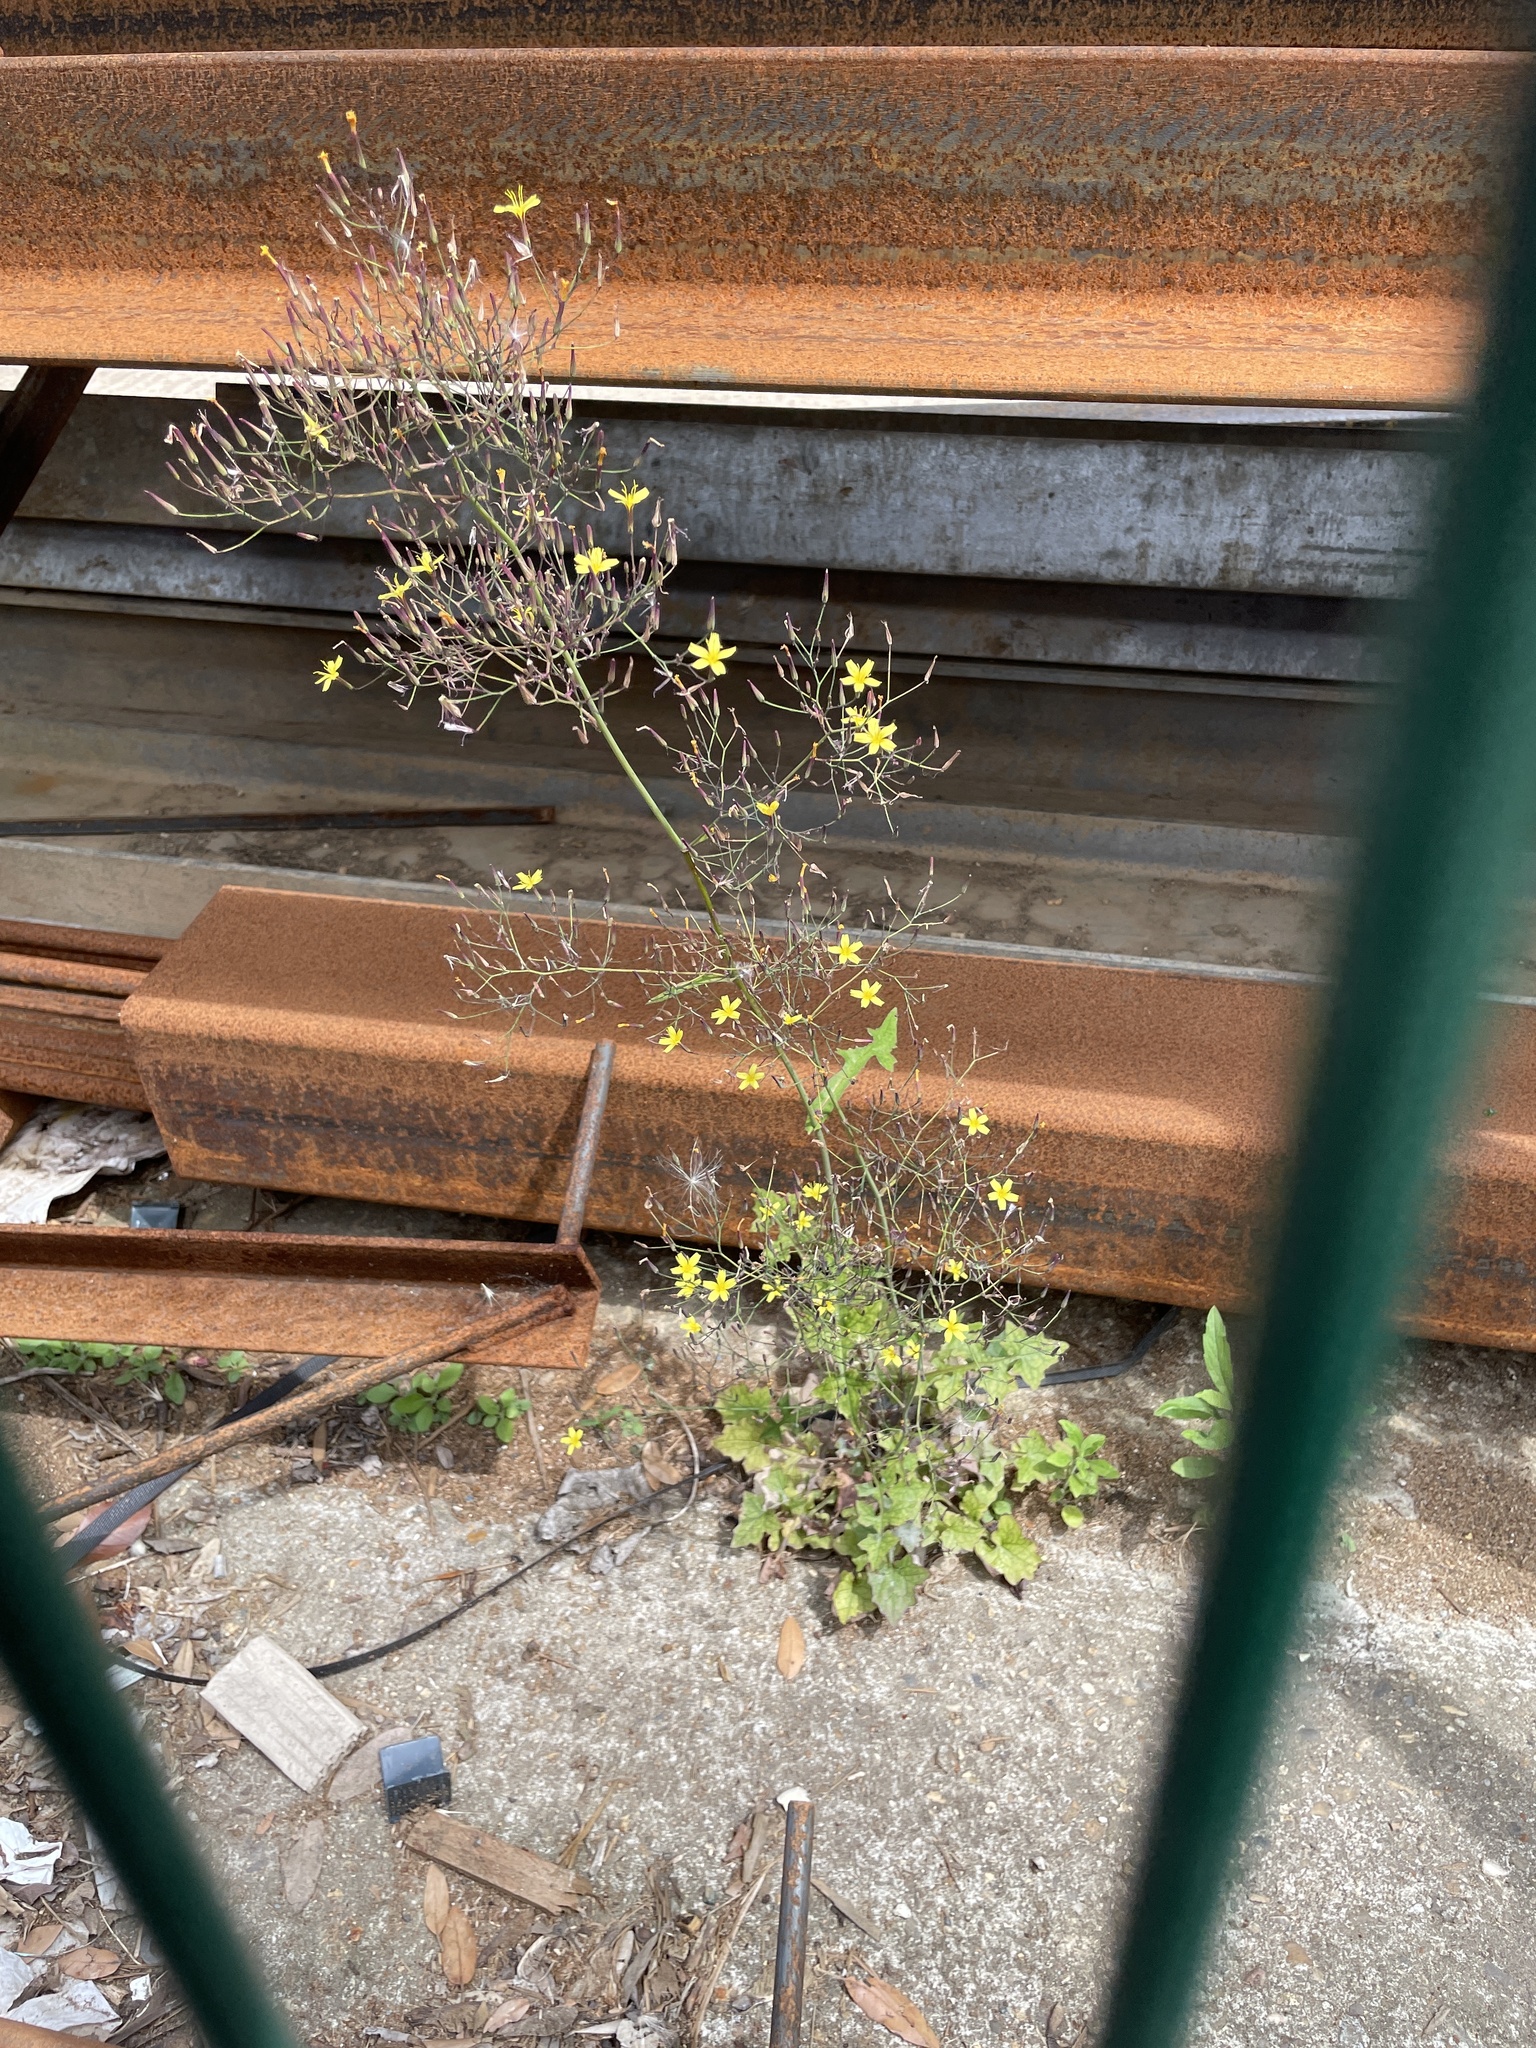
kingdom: Plantae
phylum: Tracheophyta
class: Magnoliopsida
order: Asterales
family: Asteraceae
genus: Mycelis
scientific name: Mycelis muralis
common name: Wall lettuce
